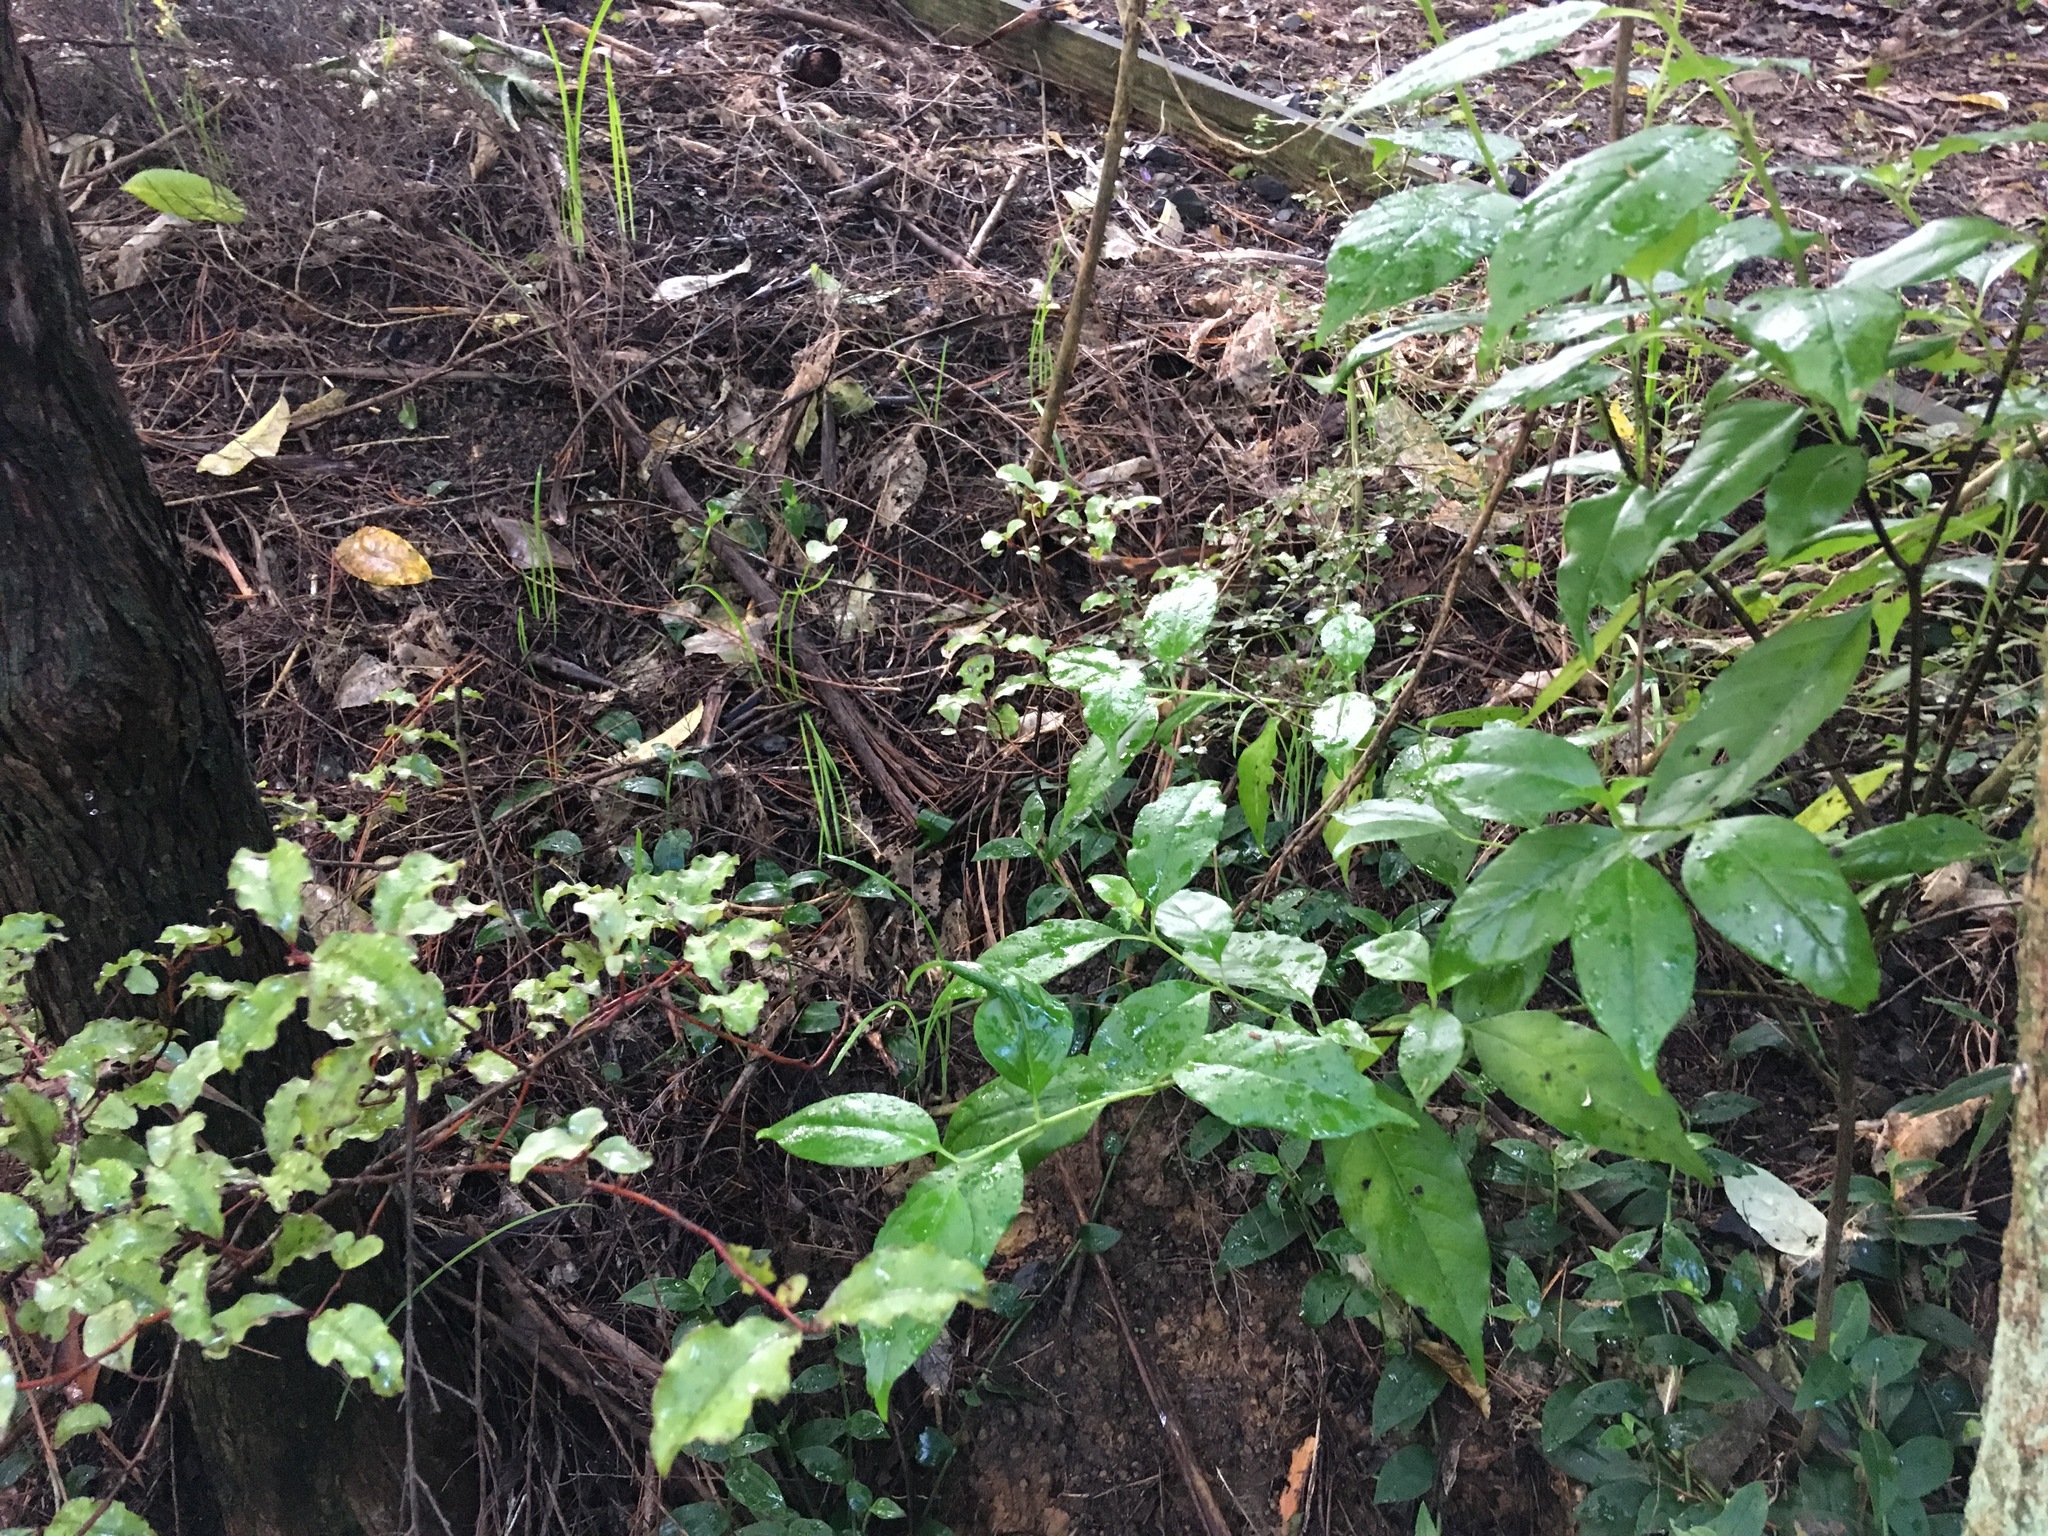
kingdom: Plantae
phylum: Tracheophyta
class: Magnoliopsida
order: Gentianales
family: Loganiaceae
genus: Geniostoma
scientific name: Geniostoma ligustrifolium
